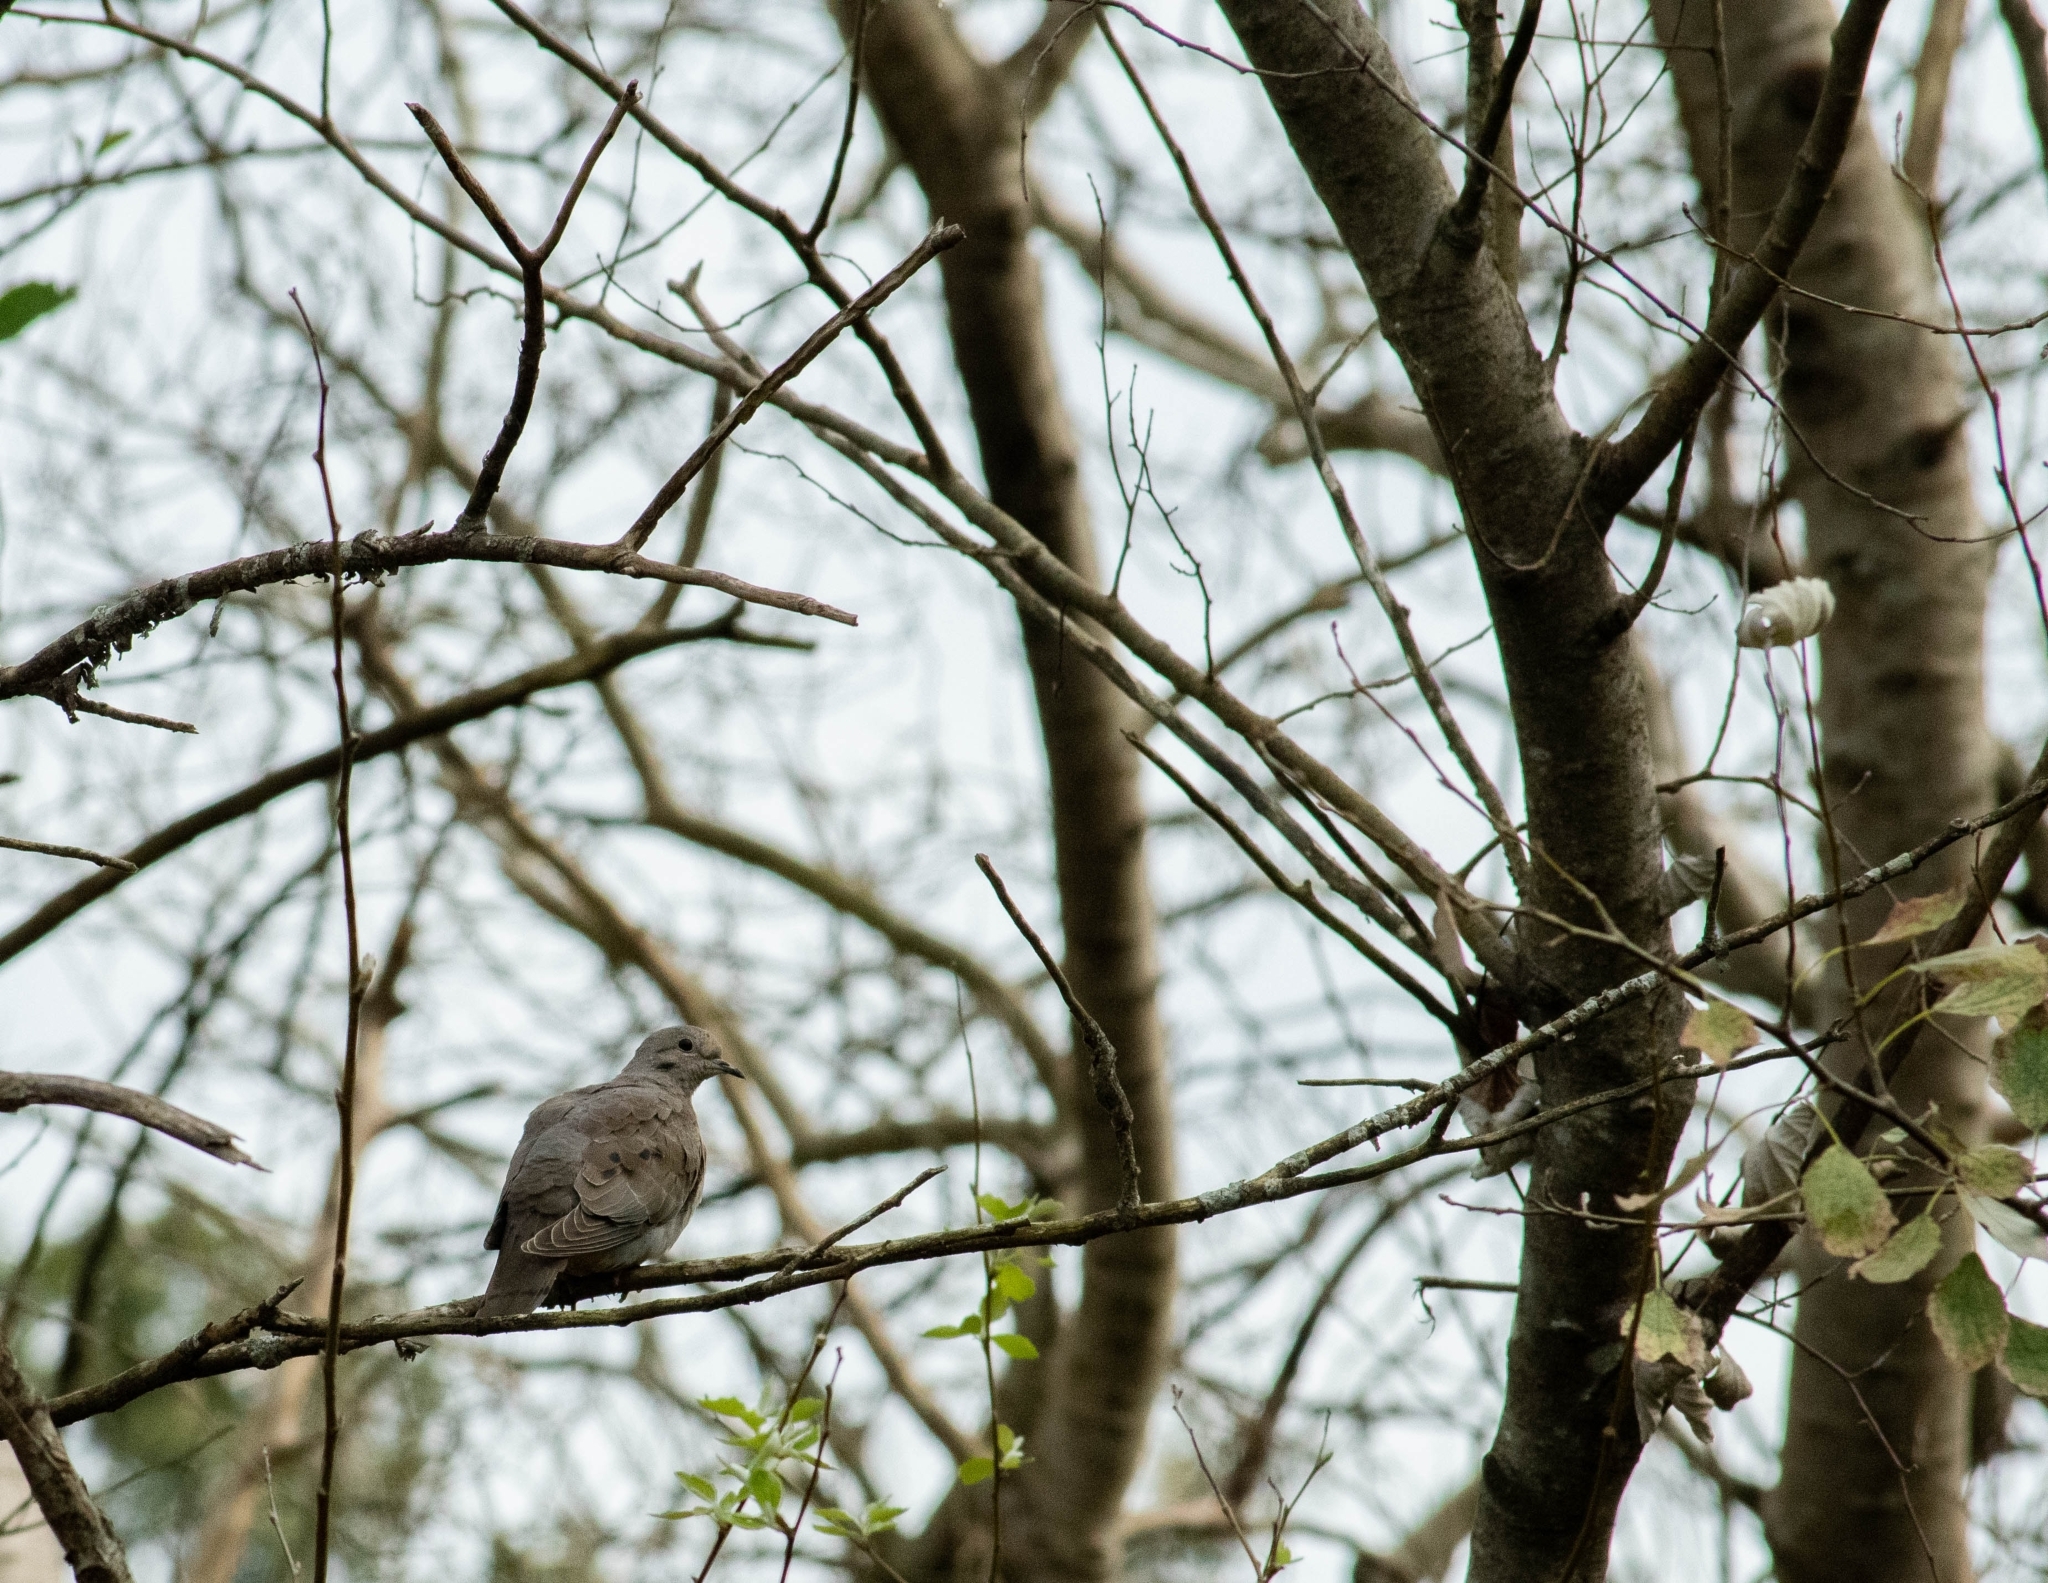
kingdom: Animalia
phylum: Chordata
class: Aves
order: Columbiformes
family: Columbidae
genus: Zenaida
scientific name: Zenaida auriculata
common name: Eared dove
